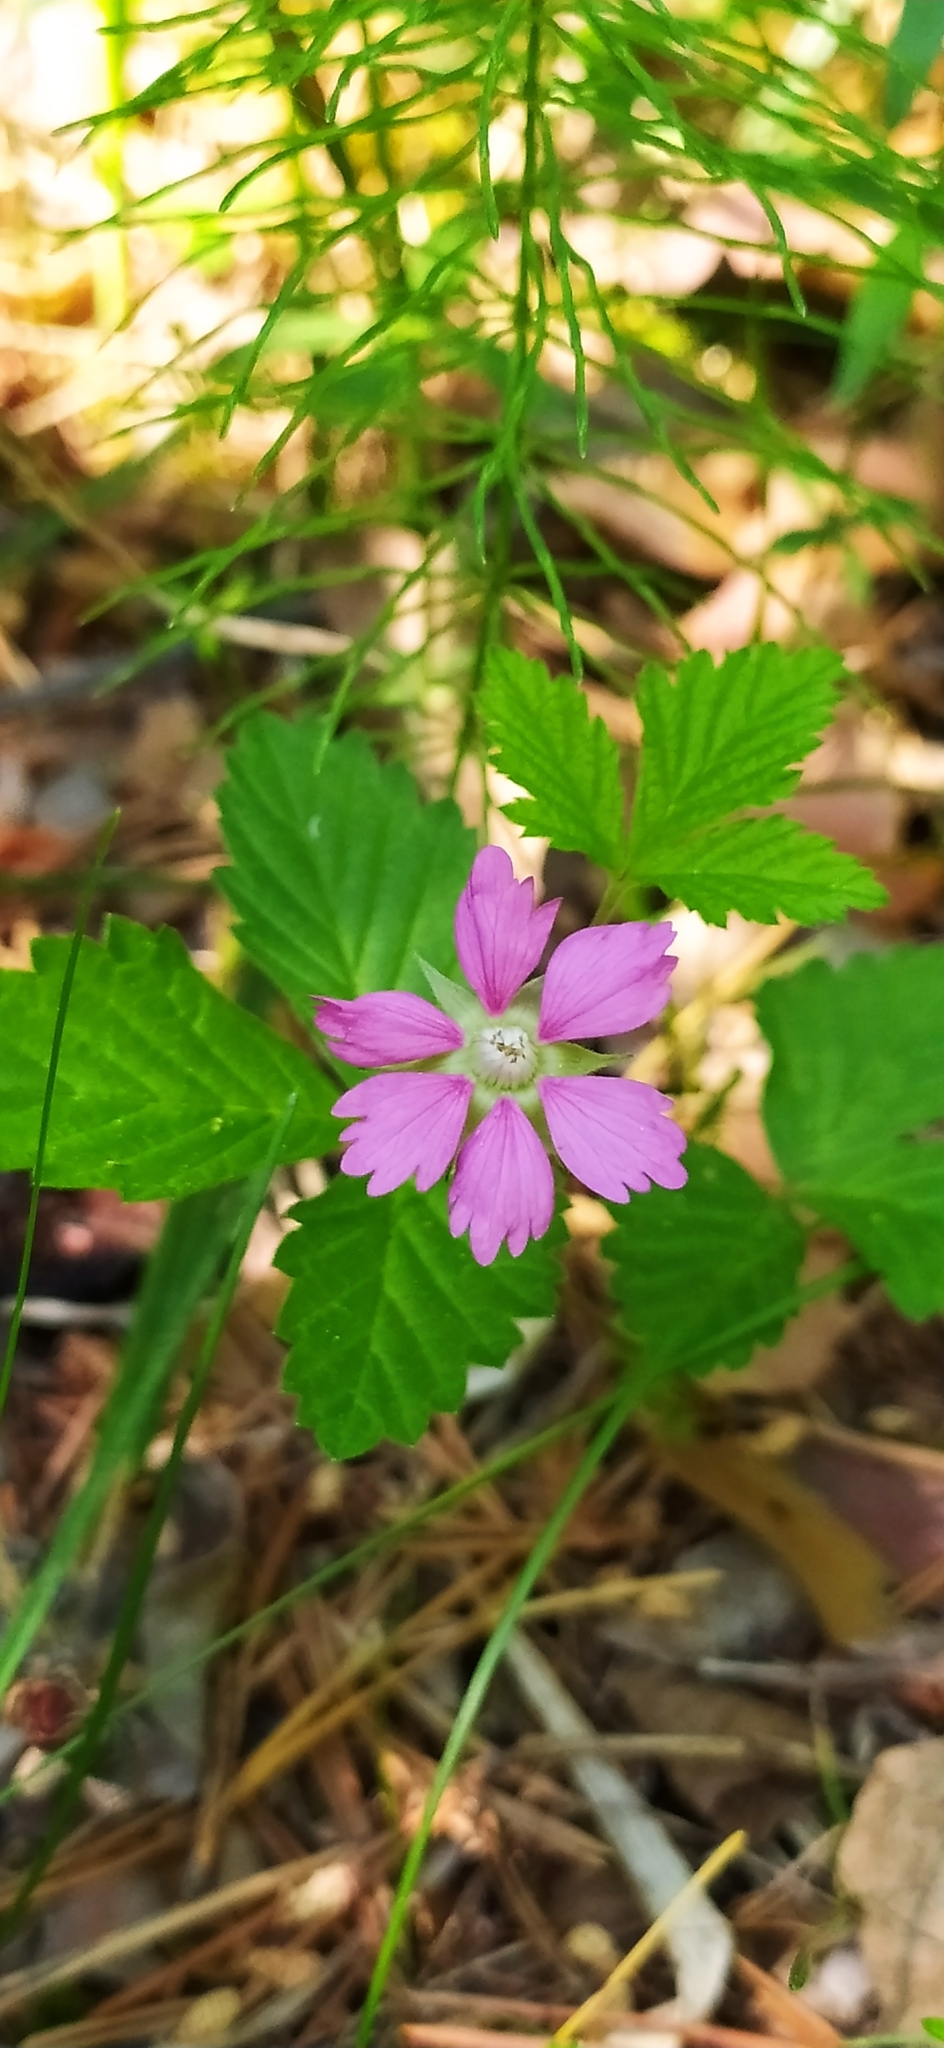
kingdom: Plantae
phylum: Tracheophyta
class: Magnoliopsida
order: Rosales
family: Rosaceae
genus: Rubus
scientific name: Rubus arcticus
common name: Arctic bramble
